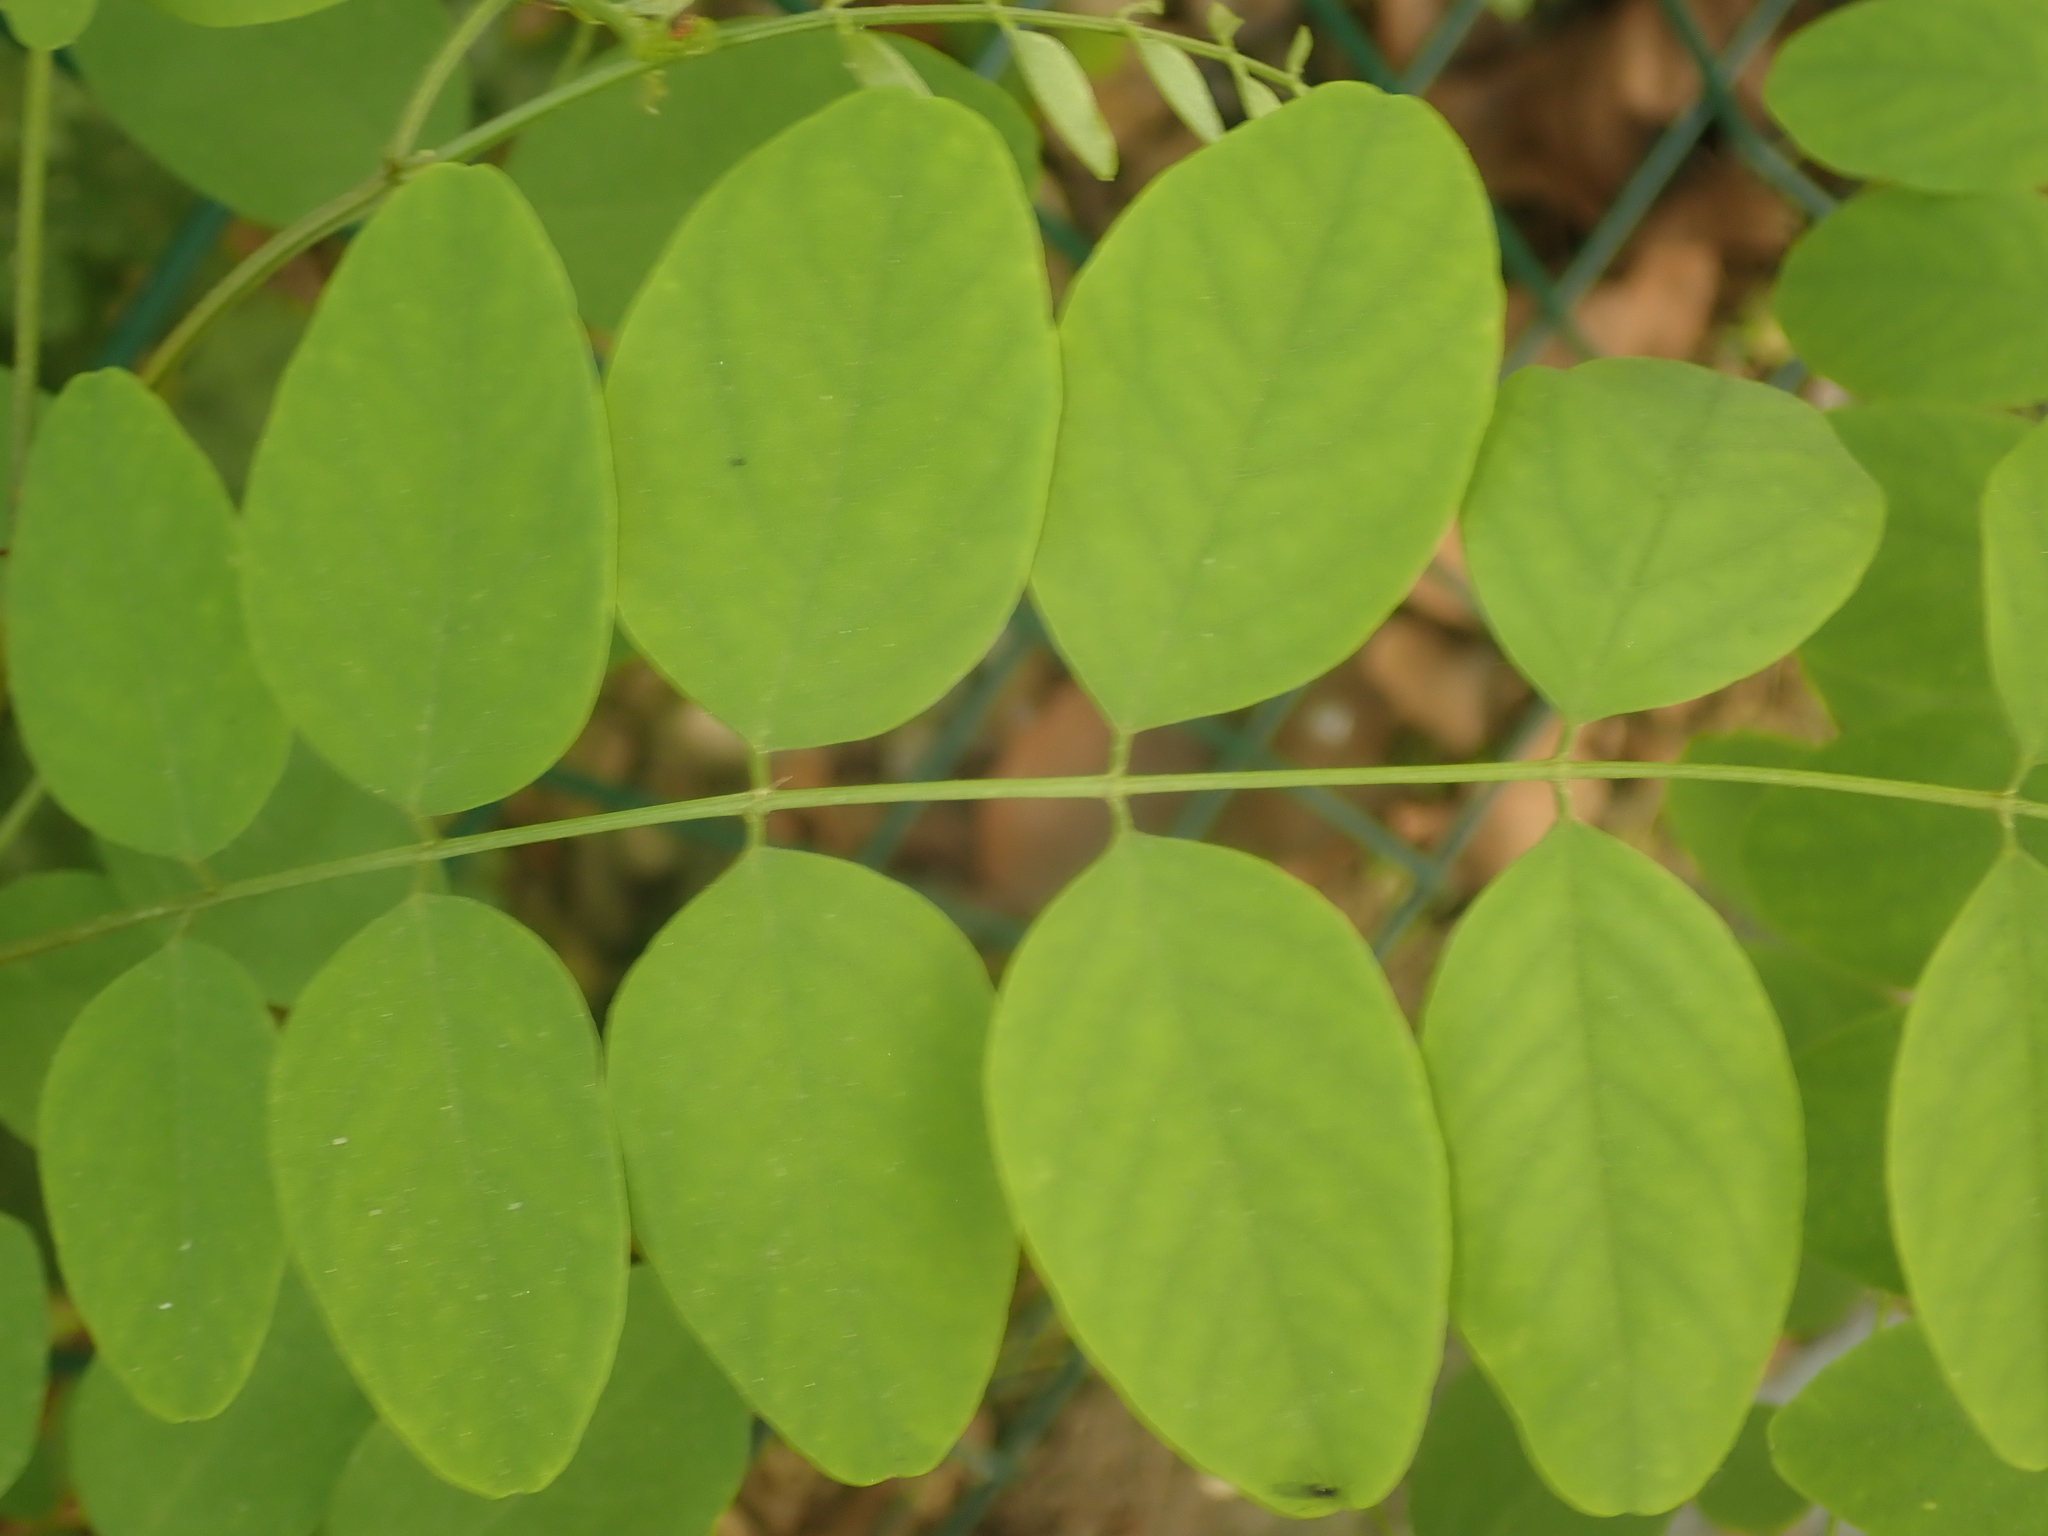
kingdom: Plantae
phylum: Tracheophyta
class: Magnoliopsida
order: Fabales
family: Fabaceae
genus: Robinia
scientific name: Robinia pseudoacacia
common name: Black locust
